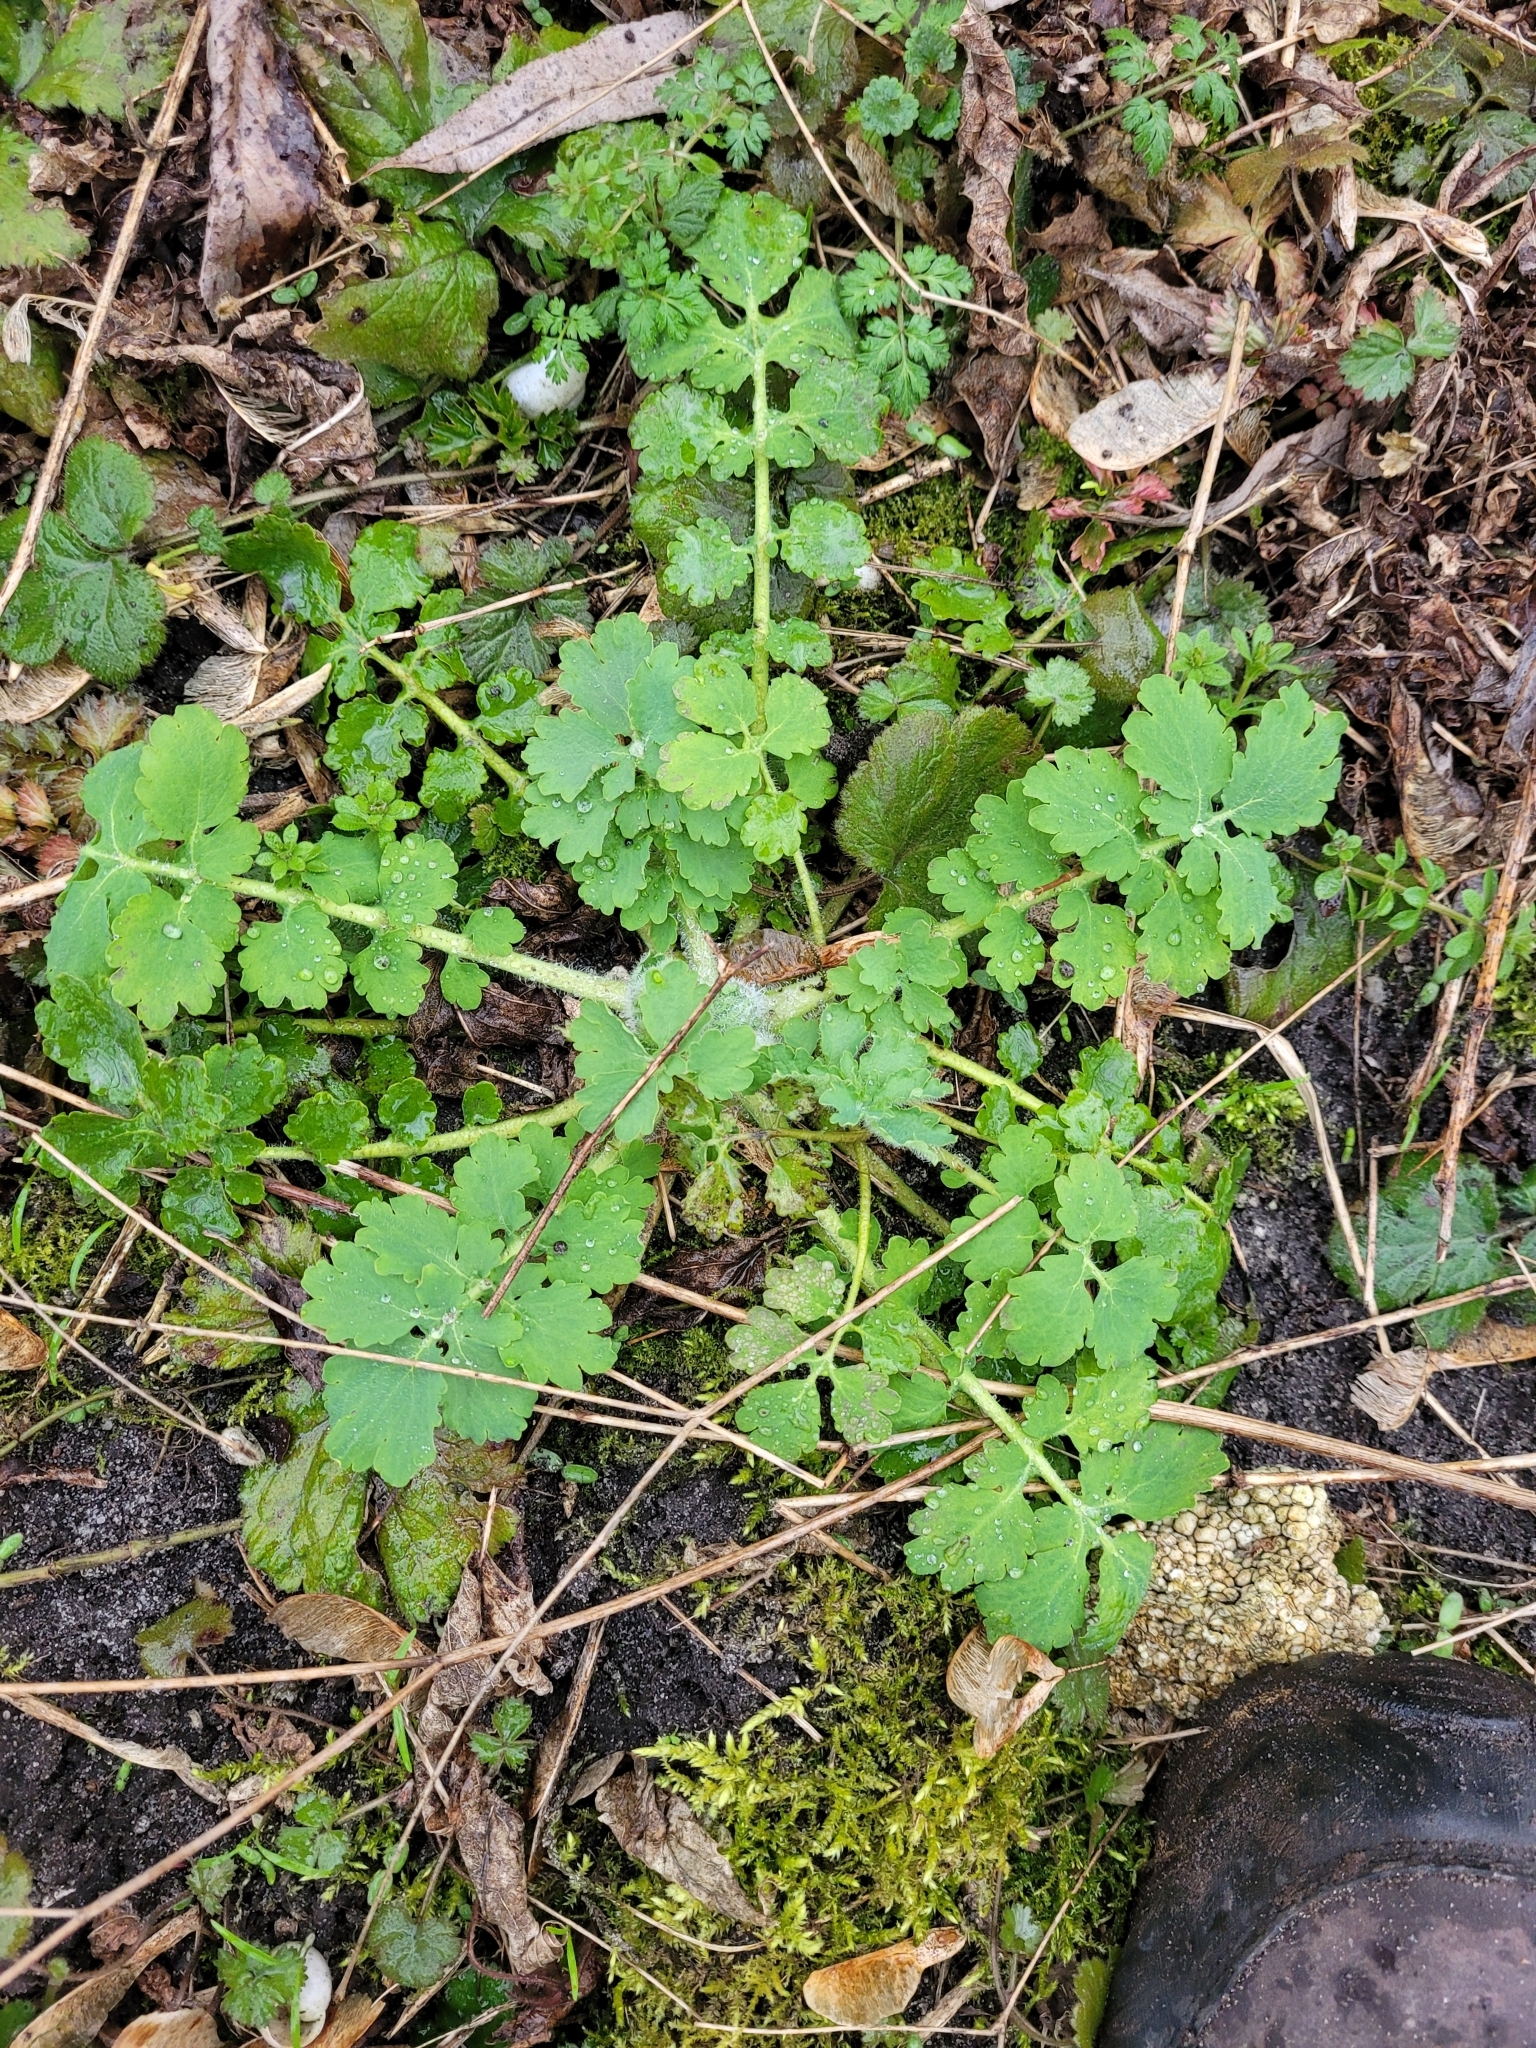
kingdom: Plantae
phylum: Tracheophyta
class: Magnoliopsida
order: Ranunculales
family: Papaveraceae
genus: Chelidonium
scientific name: Chelidonium majus
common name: Greater celandine
